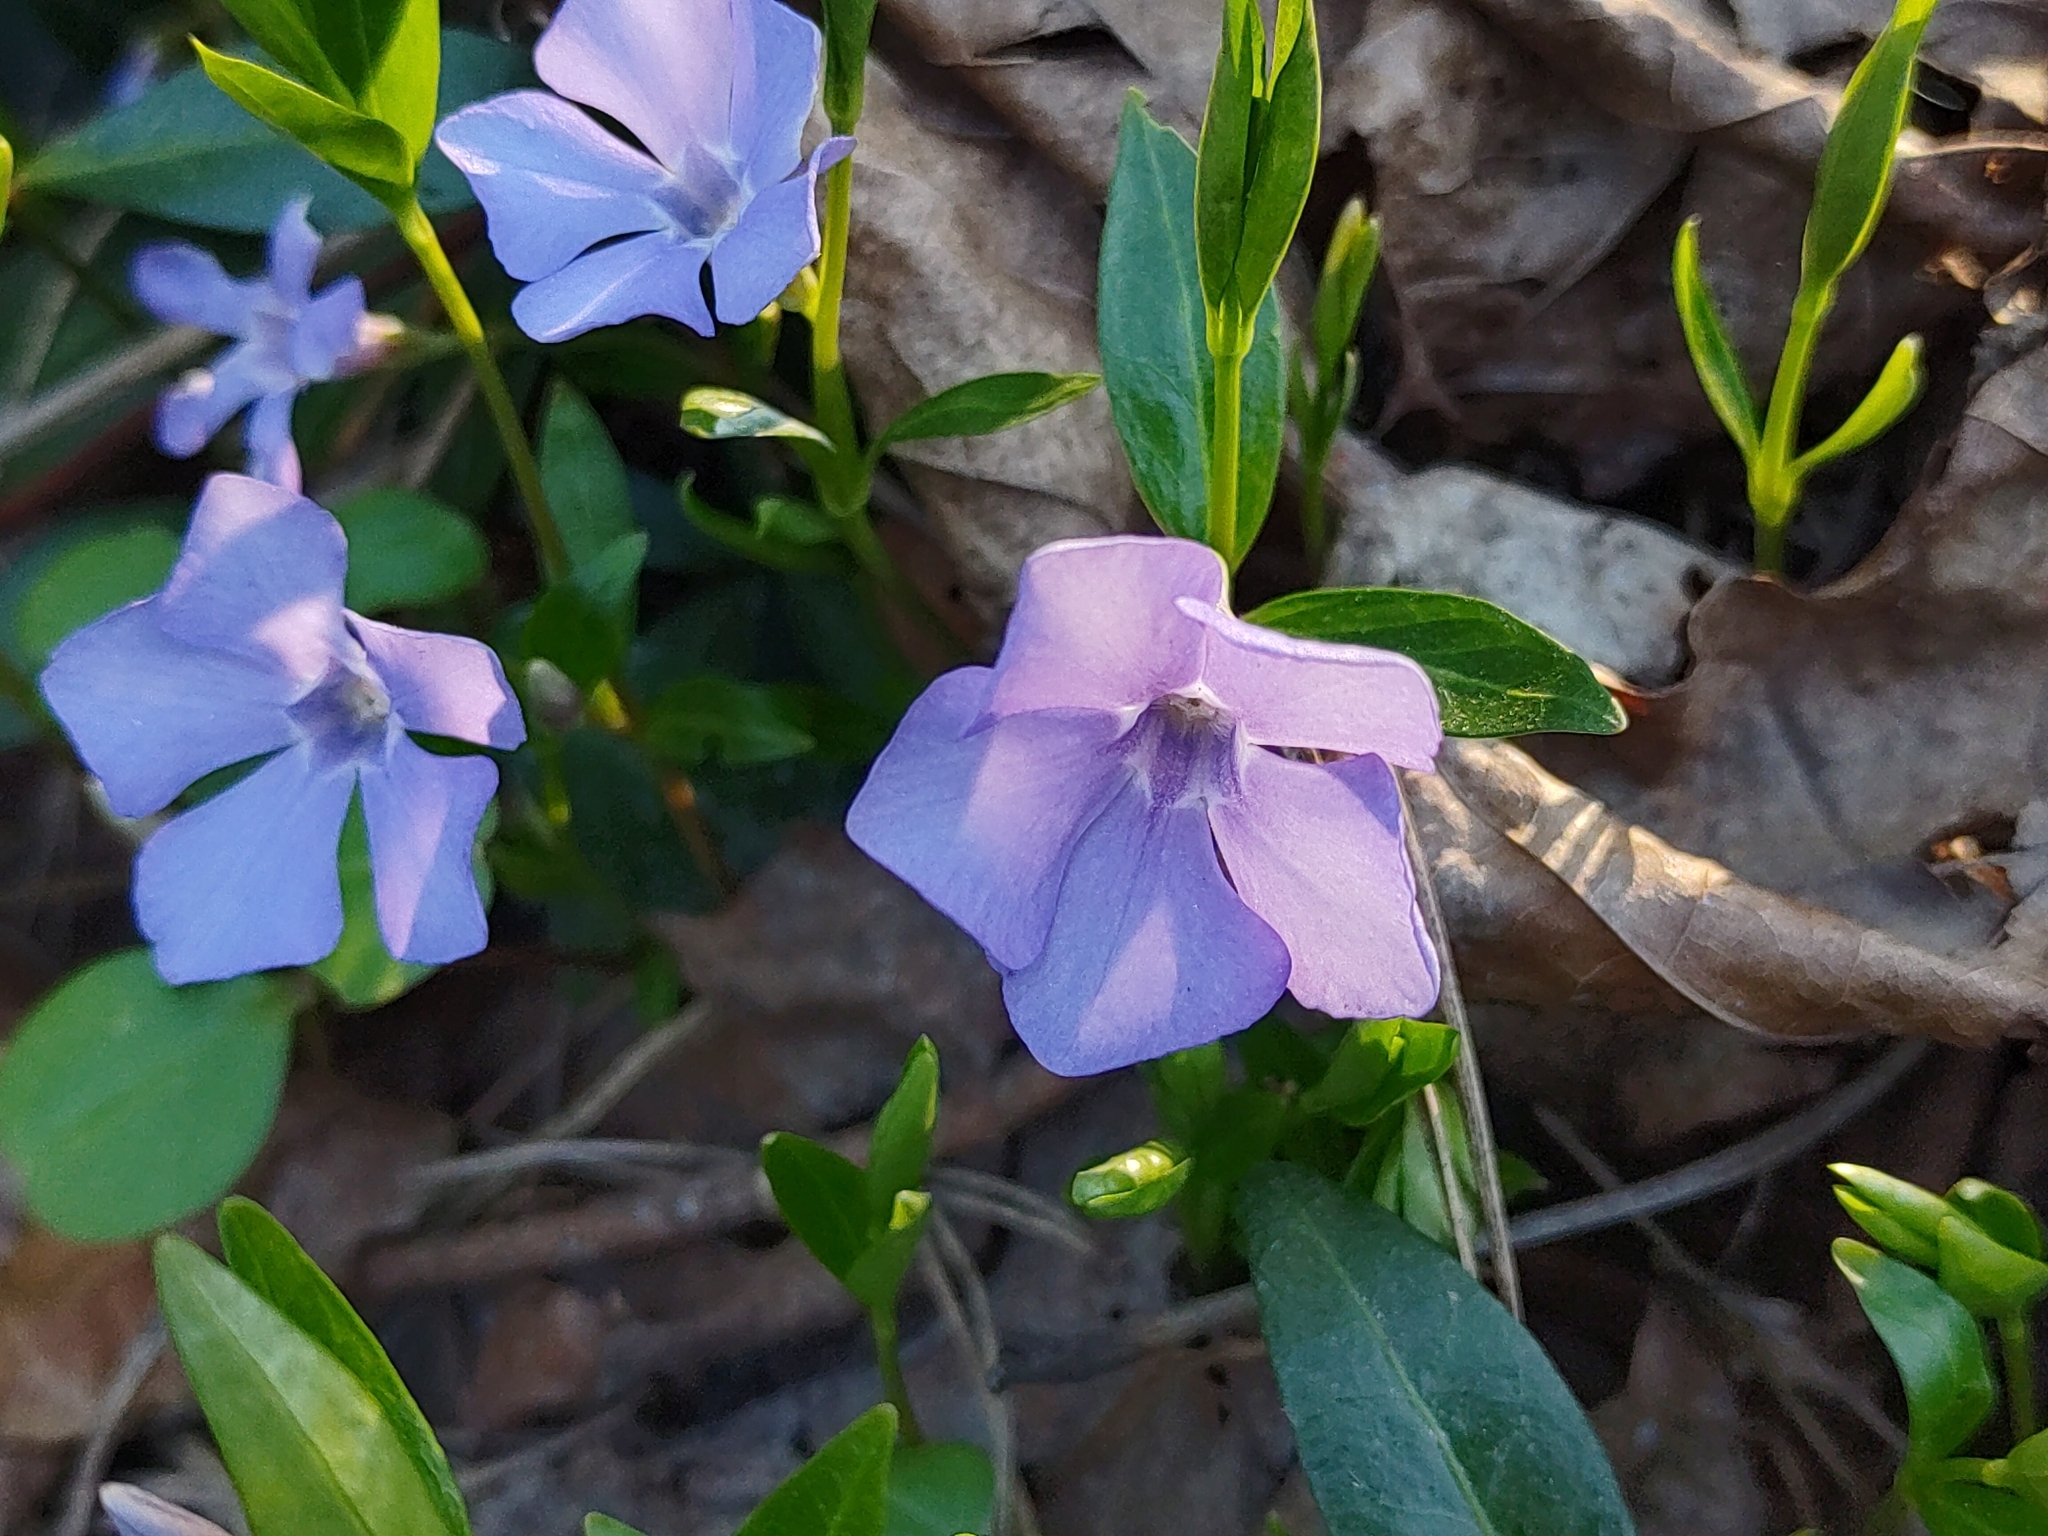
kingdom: Plantae
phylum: Tracheophyta
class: Magnoliopsida
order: Gentianales
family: Apocynaceae
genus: Vinca
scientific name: Vinca minor
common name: Lesser periwinkle
